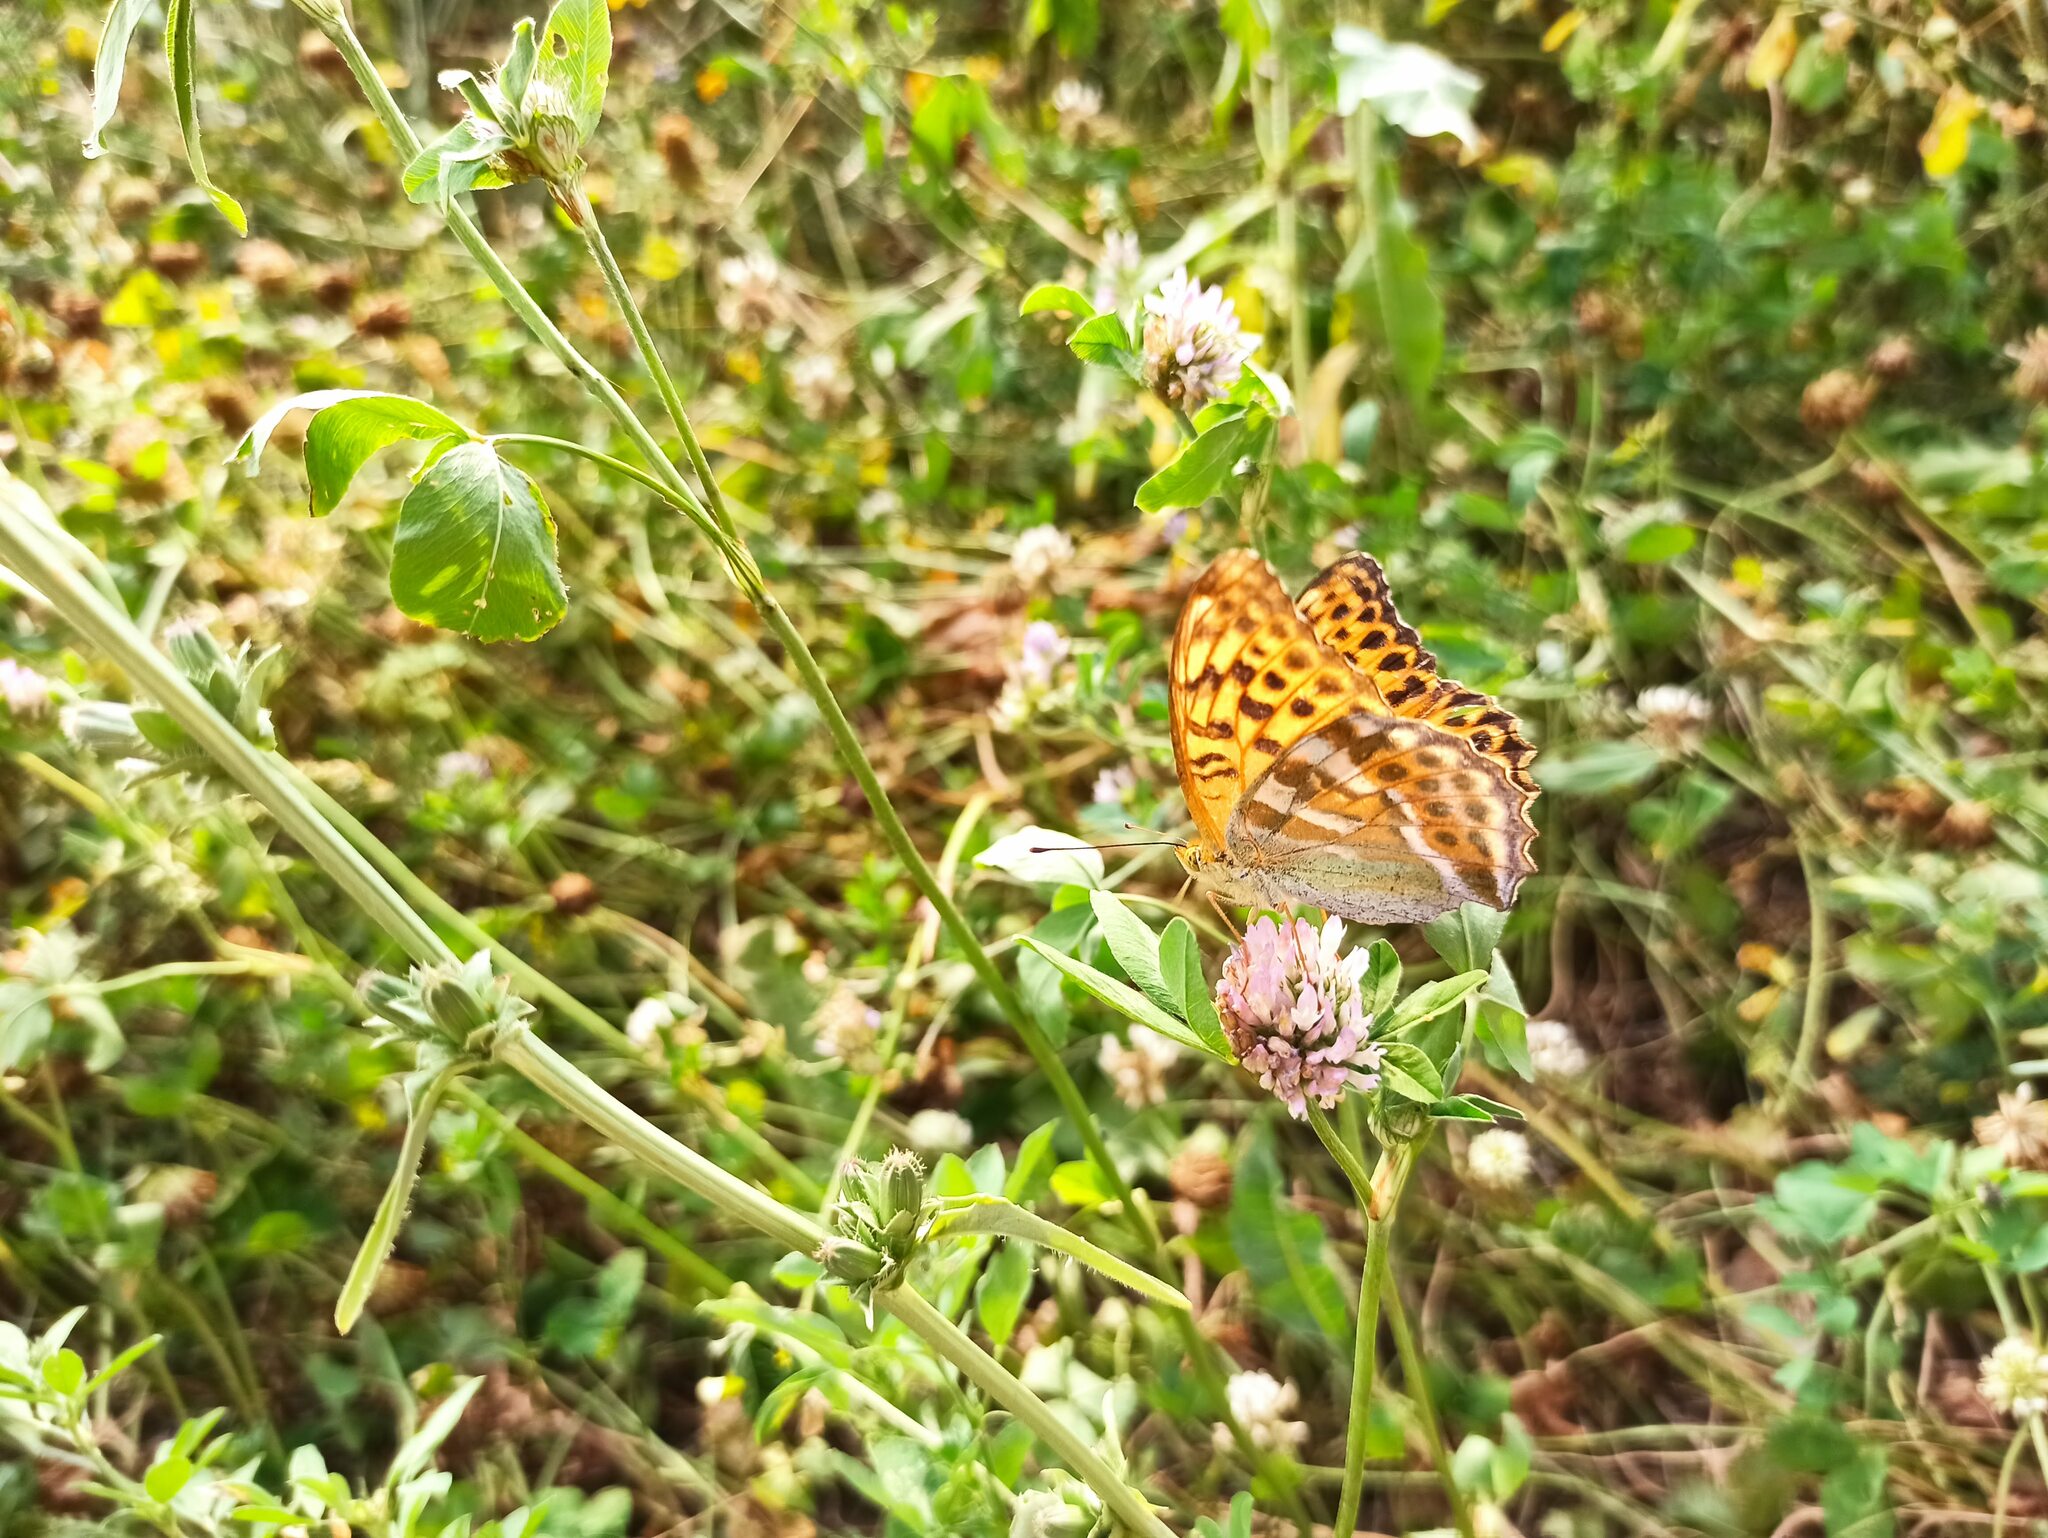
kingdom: Animalia
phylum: Arthropoda
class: Insecta
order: Lepidoptera
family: Nymphalidae
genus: Argynnis
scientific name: Argynnis paphia
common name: Silver-washed fritillary
